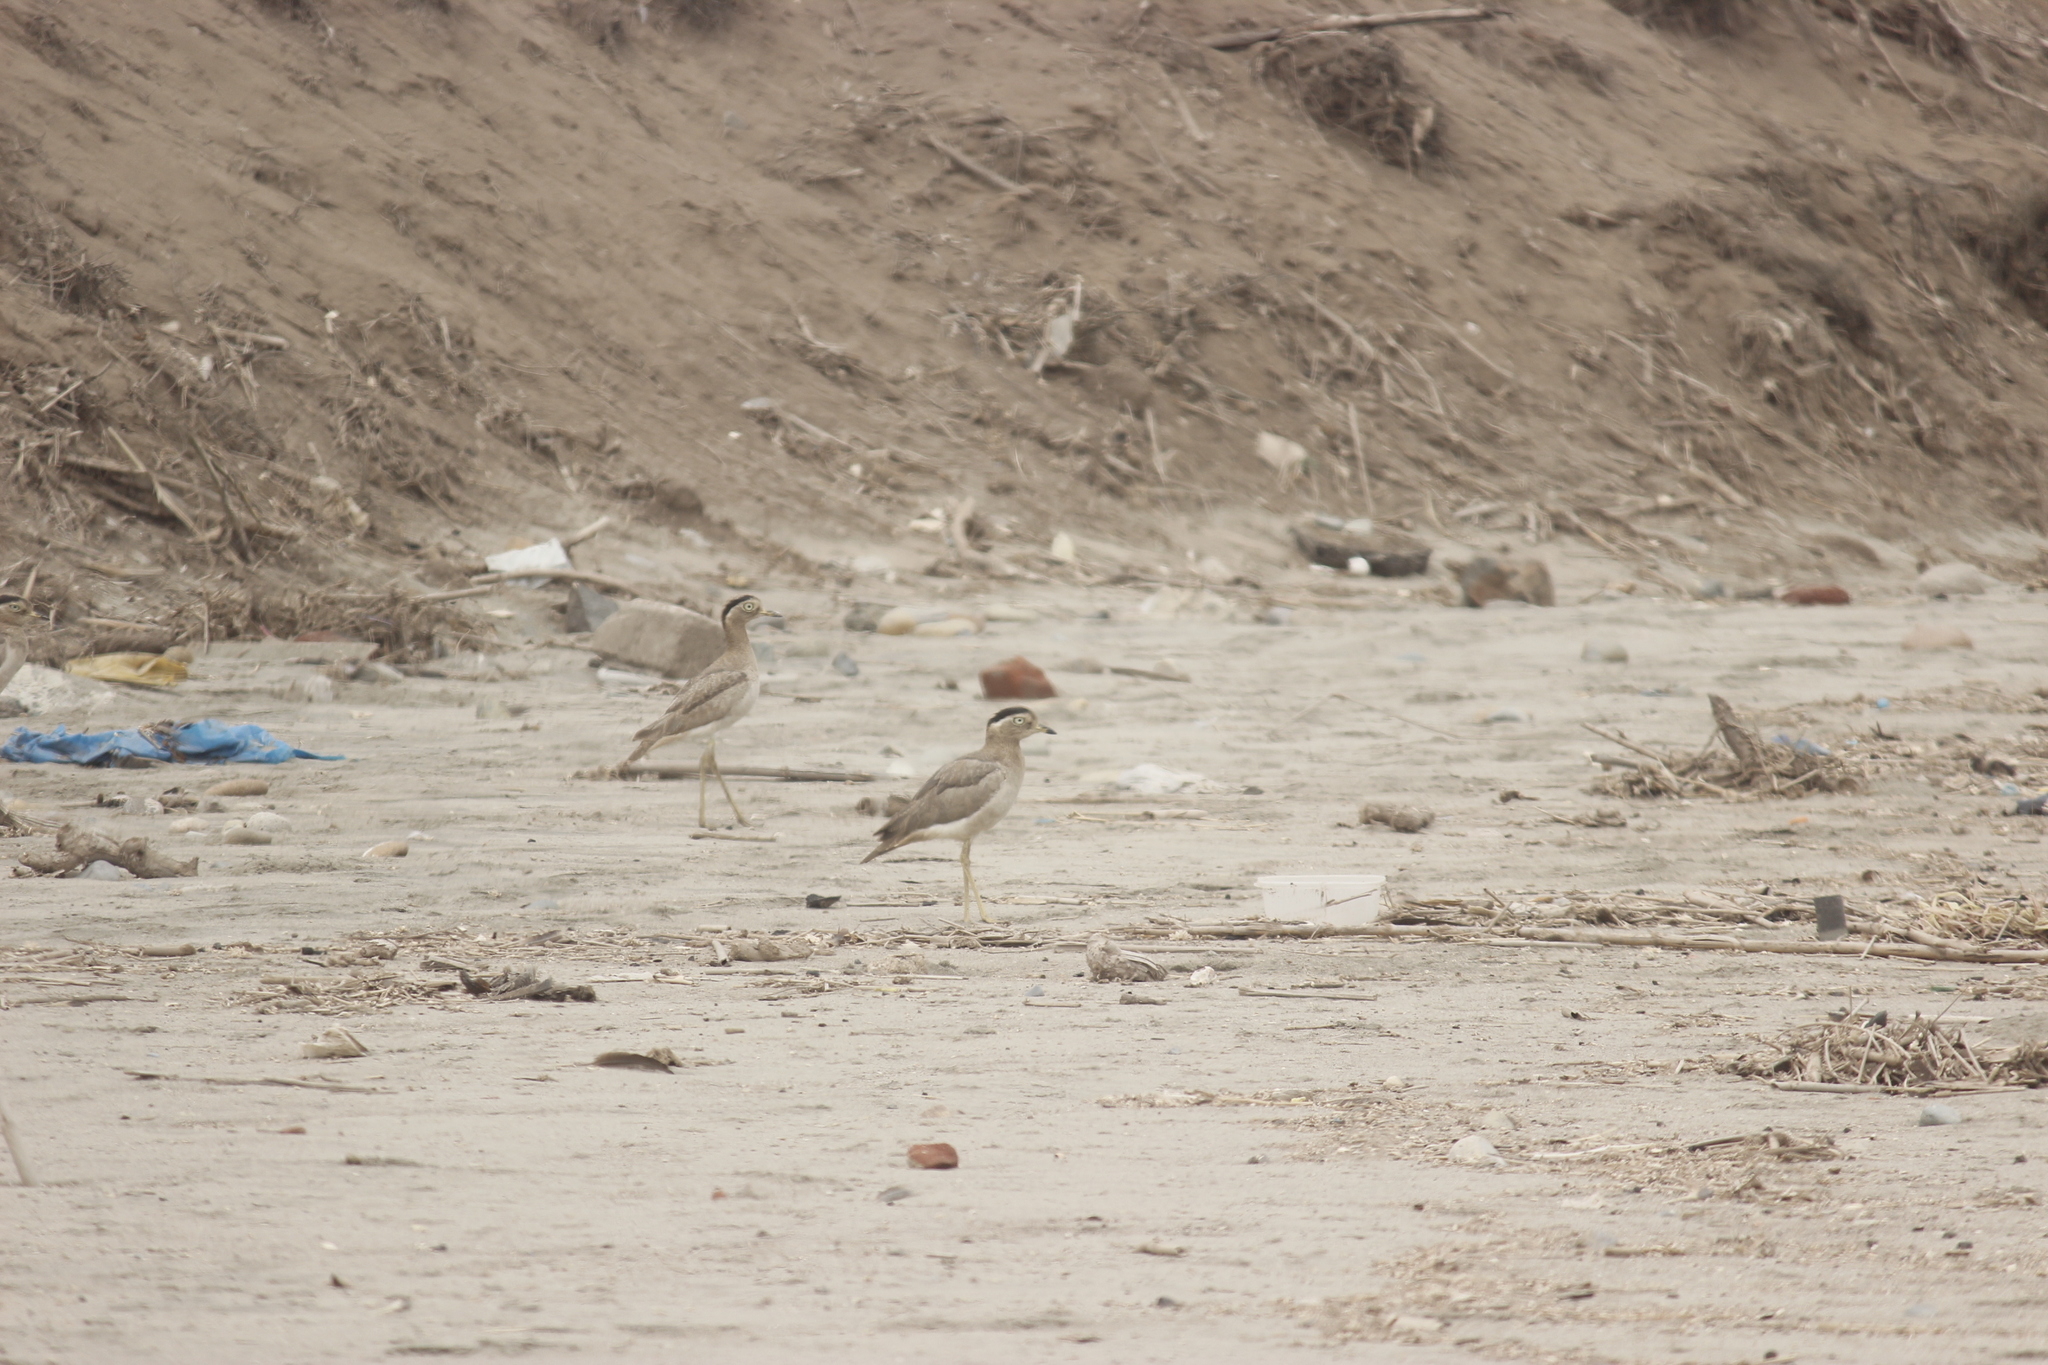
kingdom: Animalia
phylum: Chordata
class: Aves
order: Charadriiformes
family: Burhinidae
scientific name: Burhinidae
